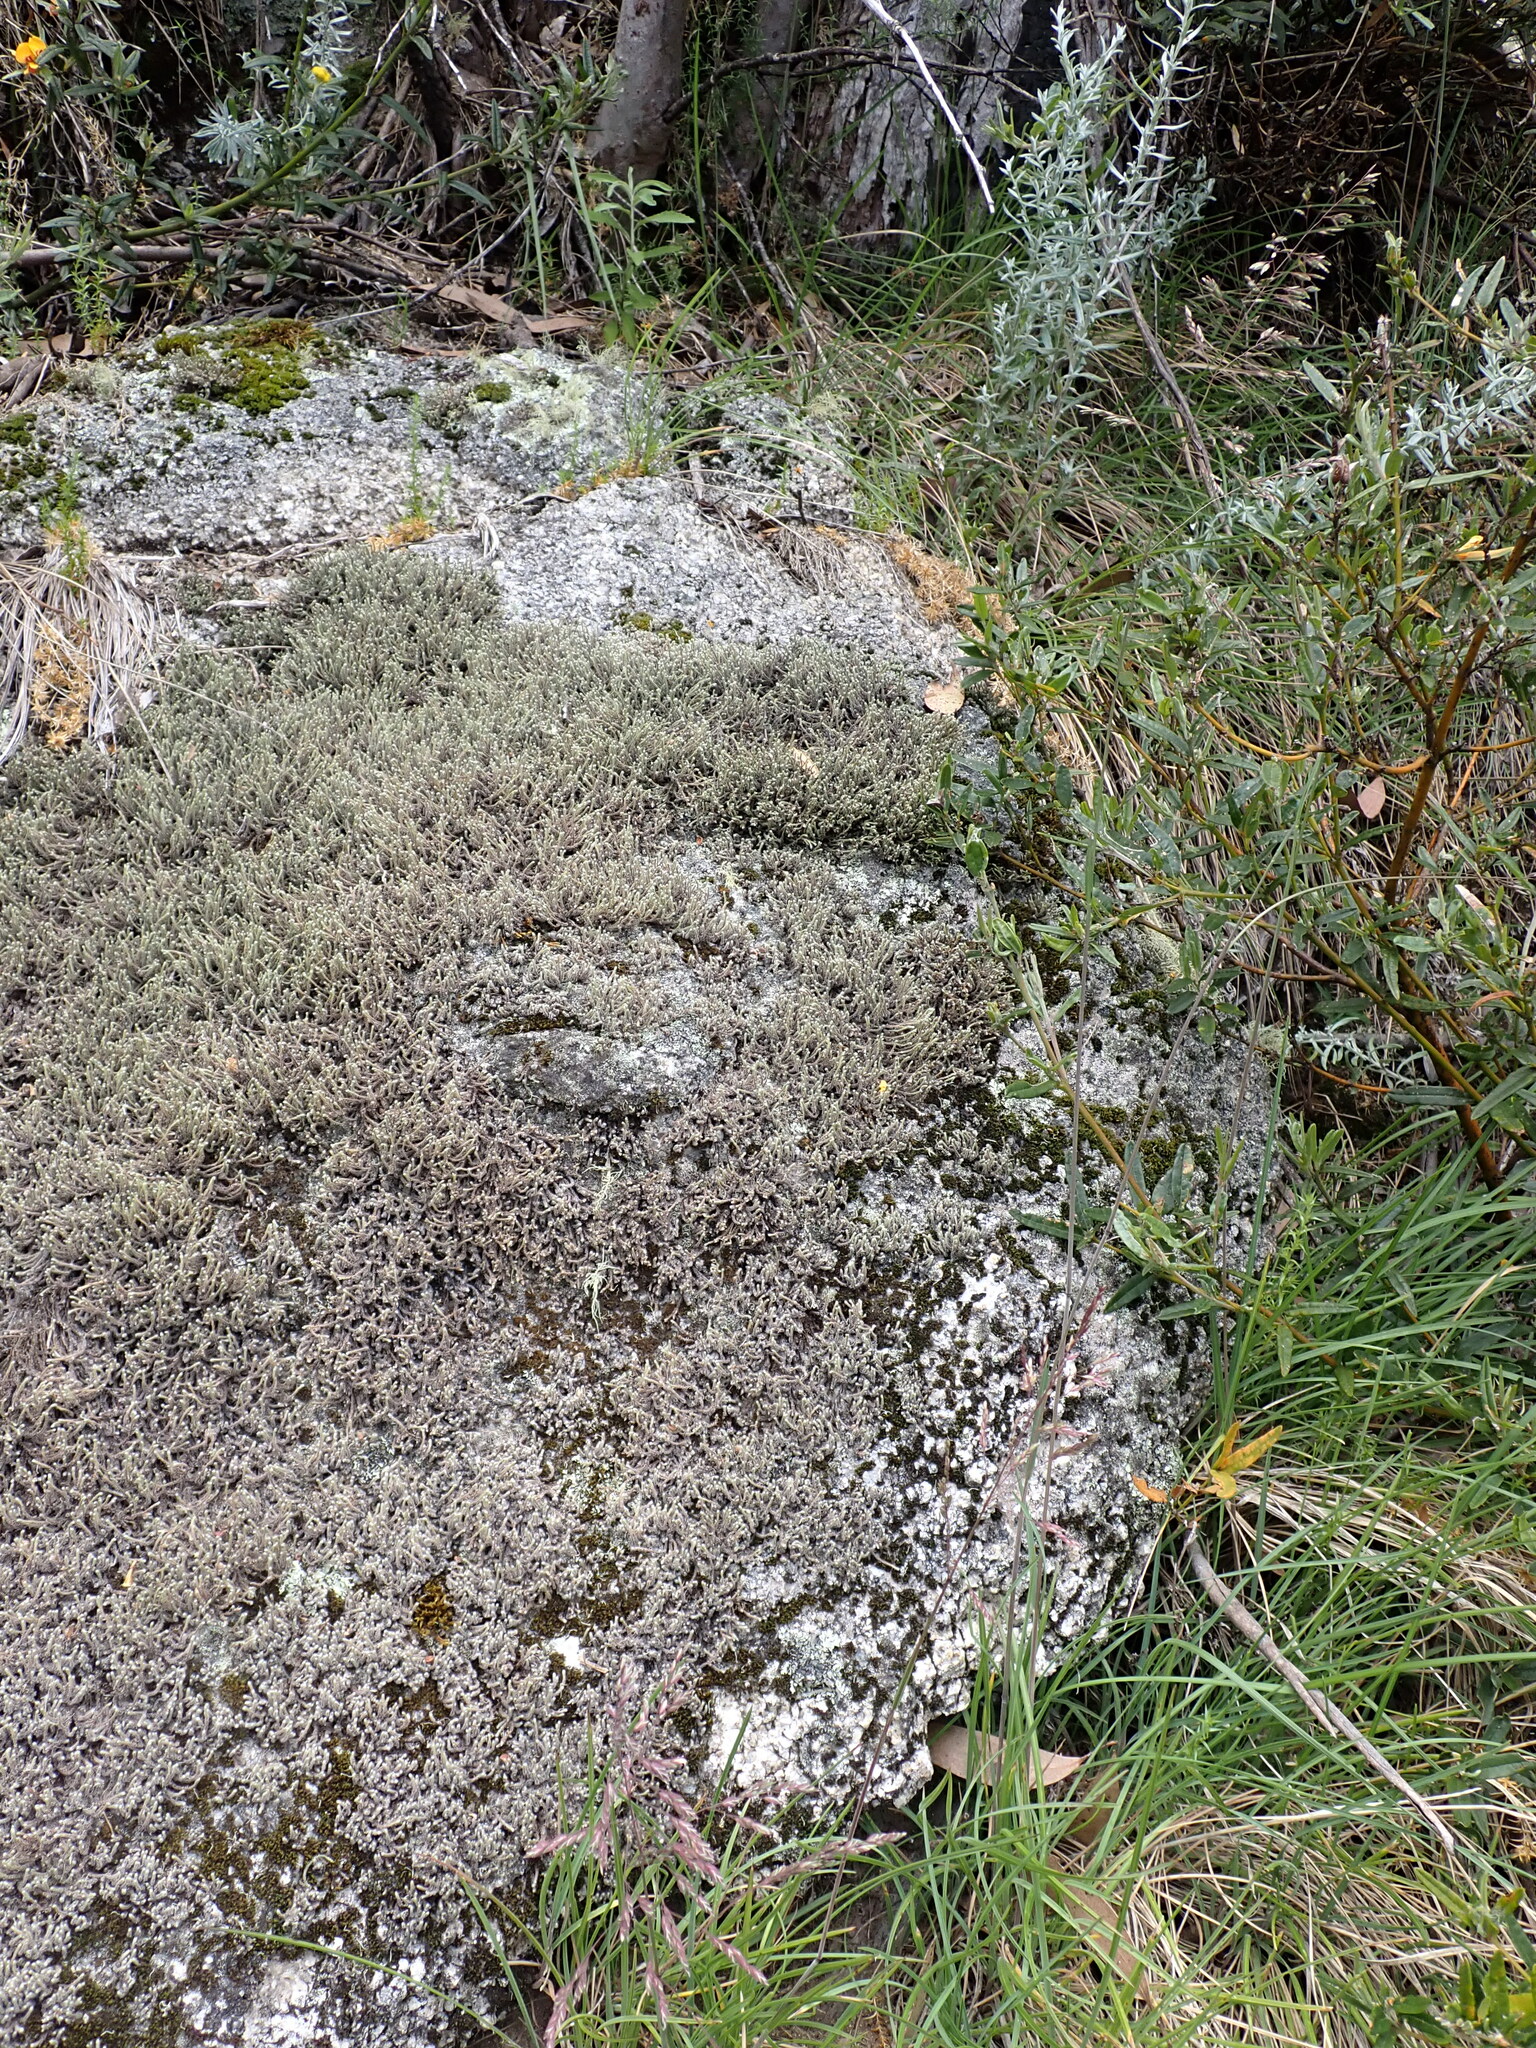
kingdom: Plantae
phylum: Bryophyta
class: Bryopsida
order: Hedwigiales
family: Hedwigiaceae
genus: Hedwigia
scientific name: Hedwigia ciliata
